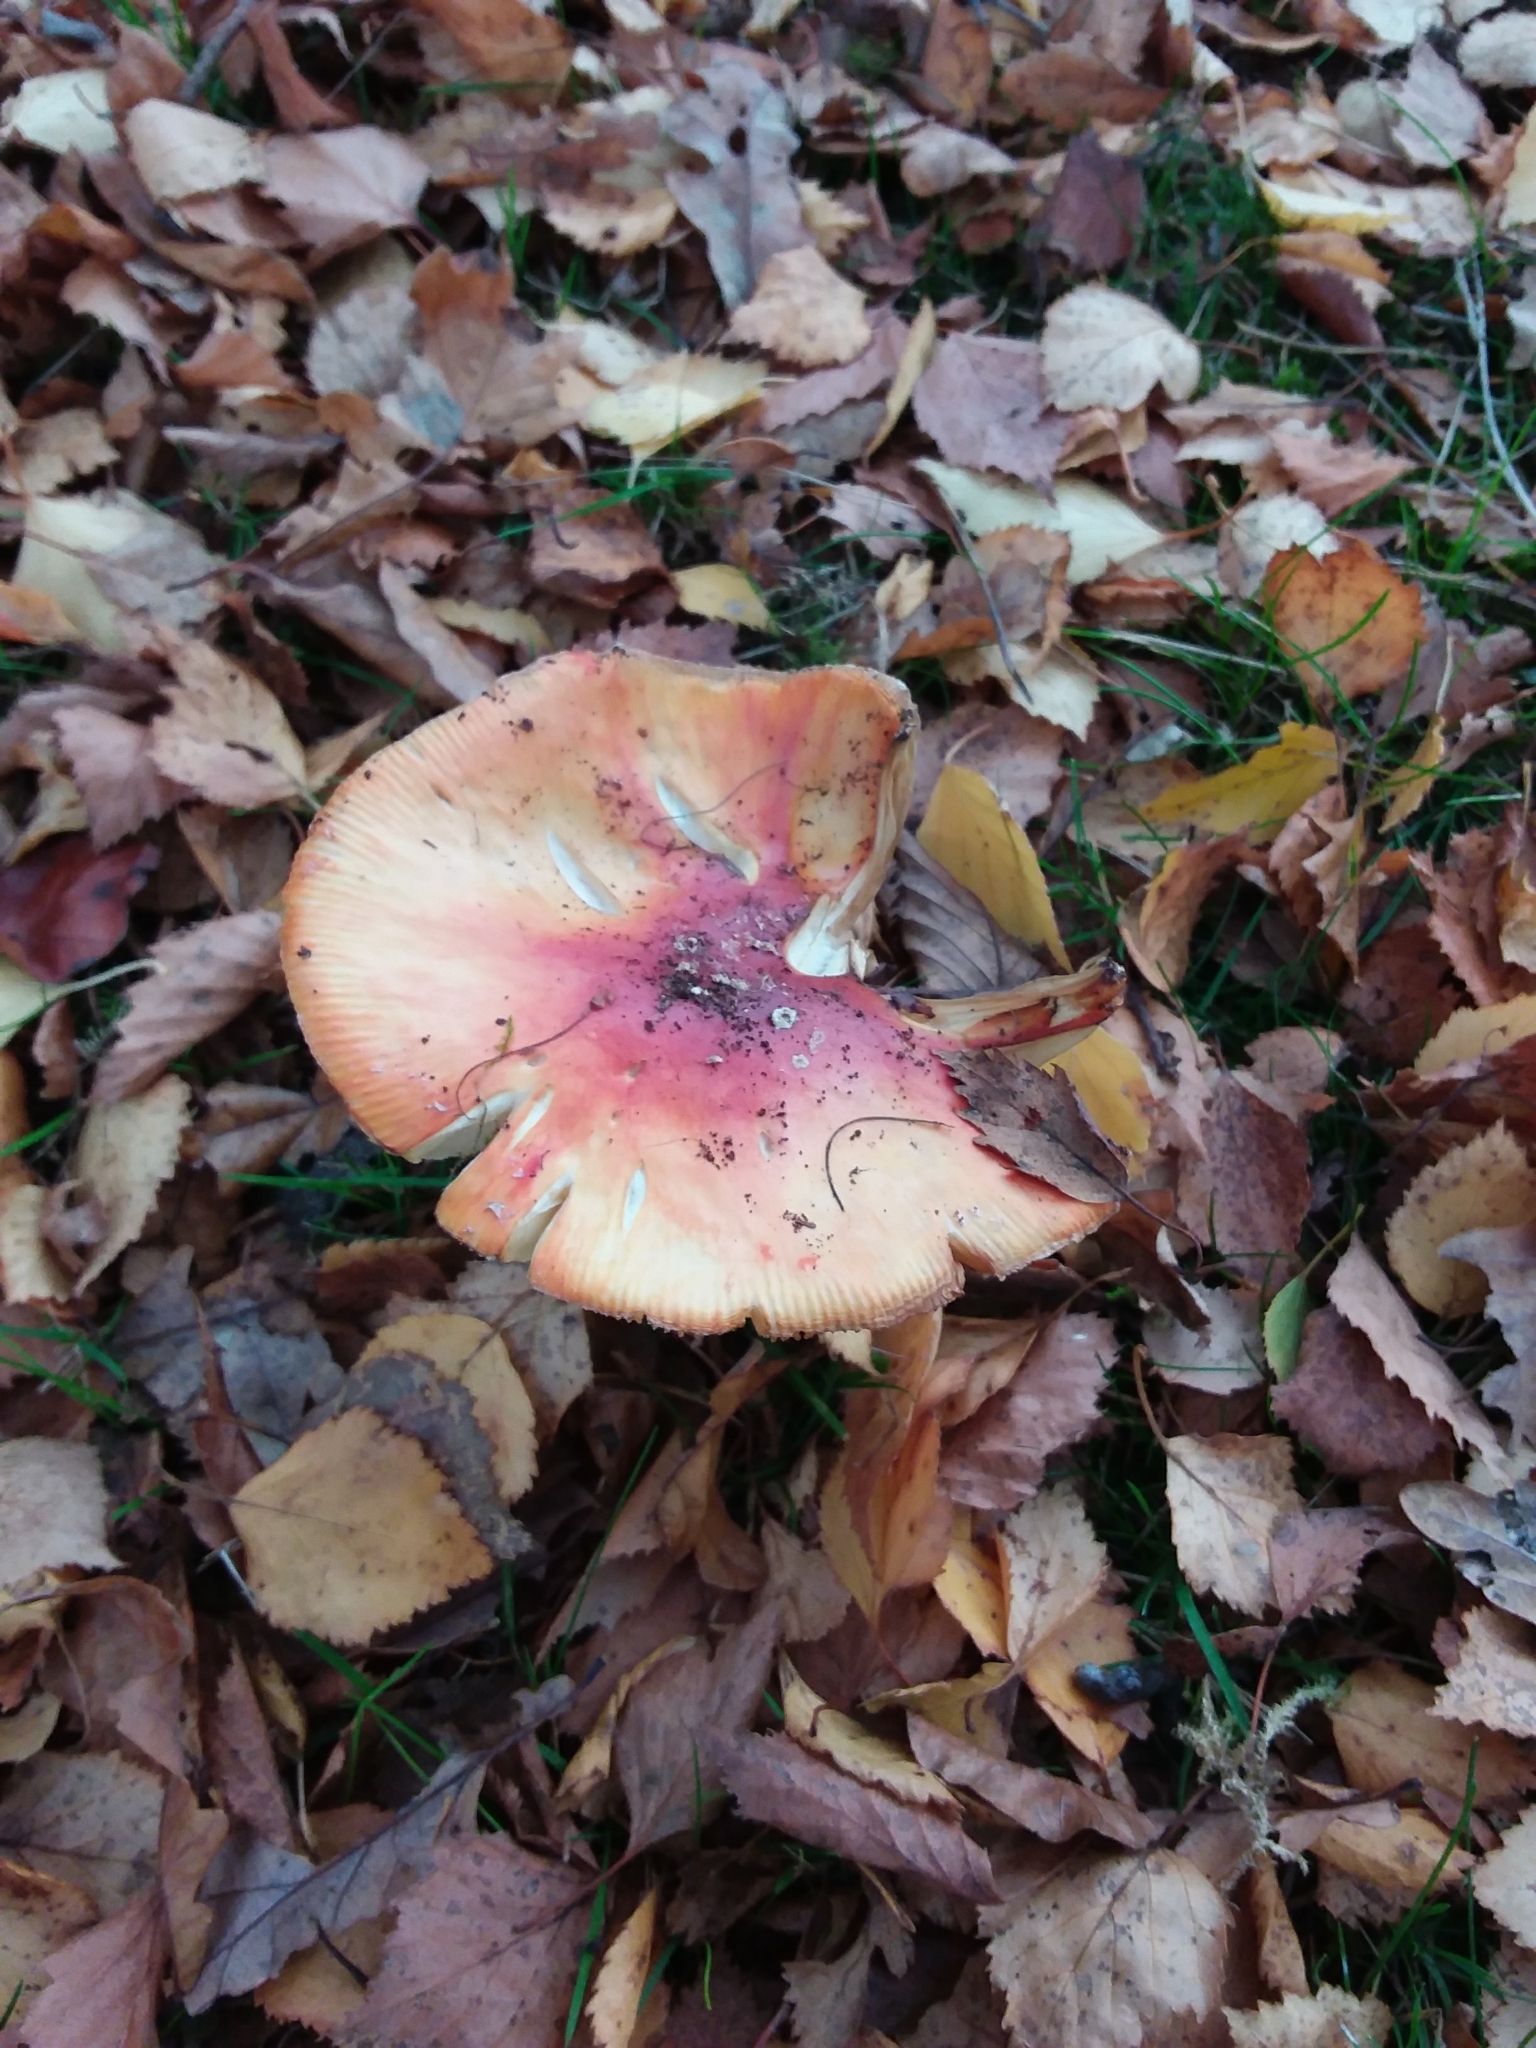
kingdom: Fungi
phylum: Basidiomycota
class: Agaricomycetes
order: Agaricales
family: Amanitaceae
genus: Amanita
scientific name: Amanita muscaria
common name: Fly agaric
